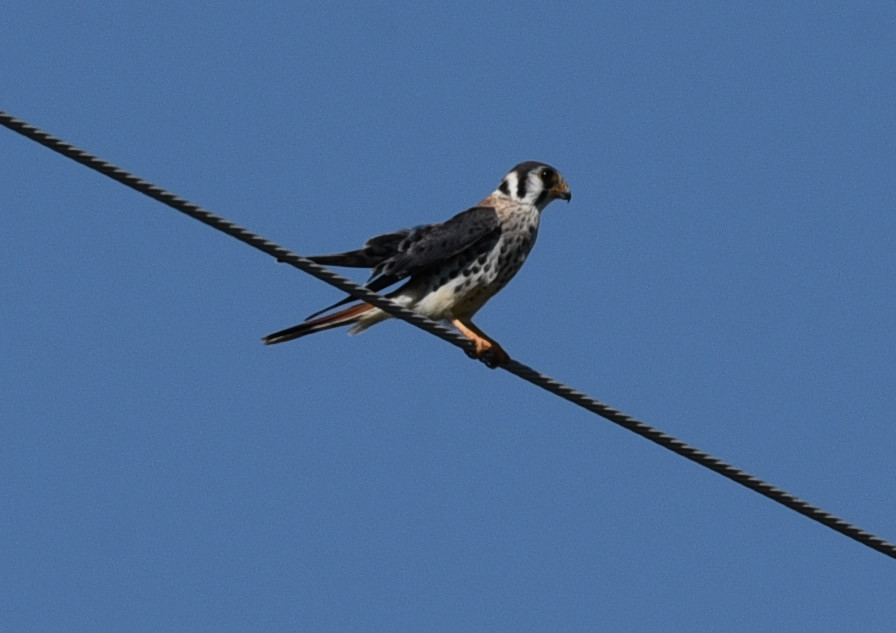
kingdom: Animalia
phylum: Chordata
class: Aves
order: Falconiformes
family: Falconidae
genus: Falco
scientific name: Falco sparverius
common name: American kestrel
